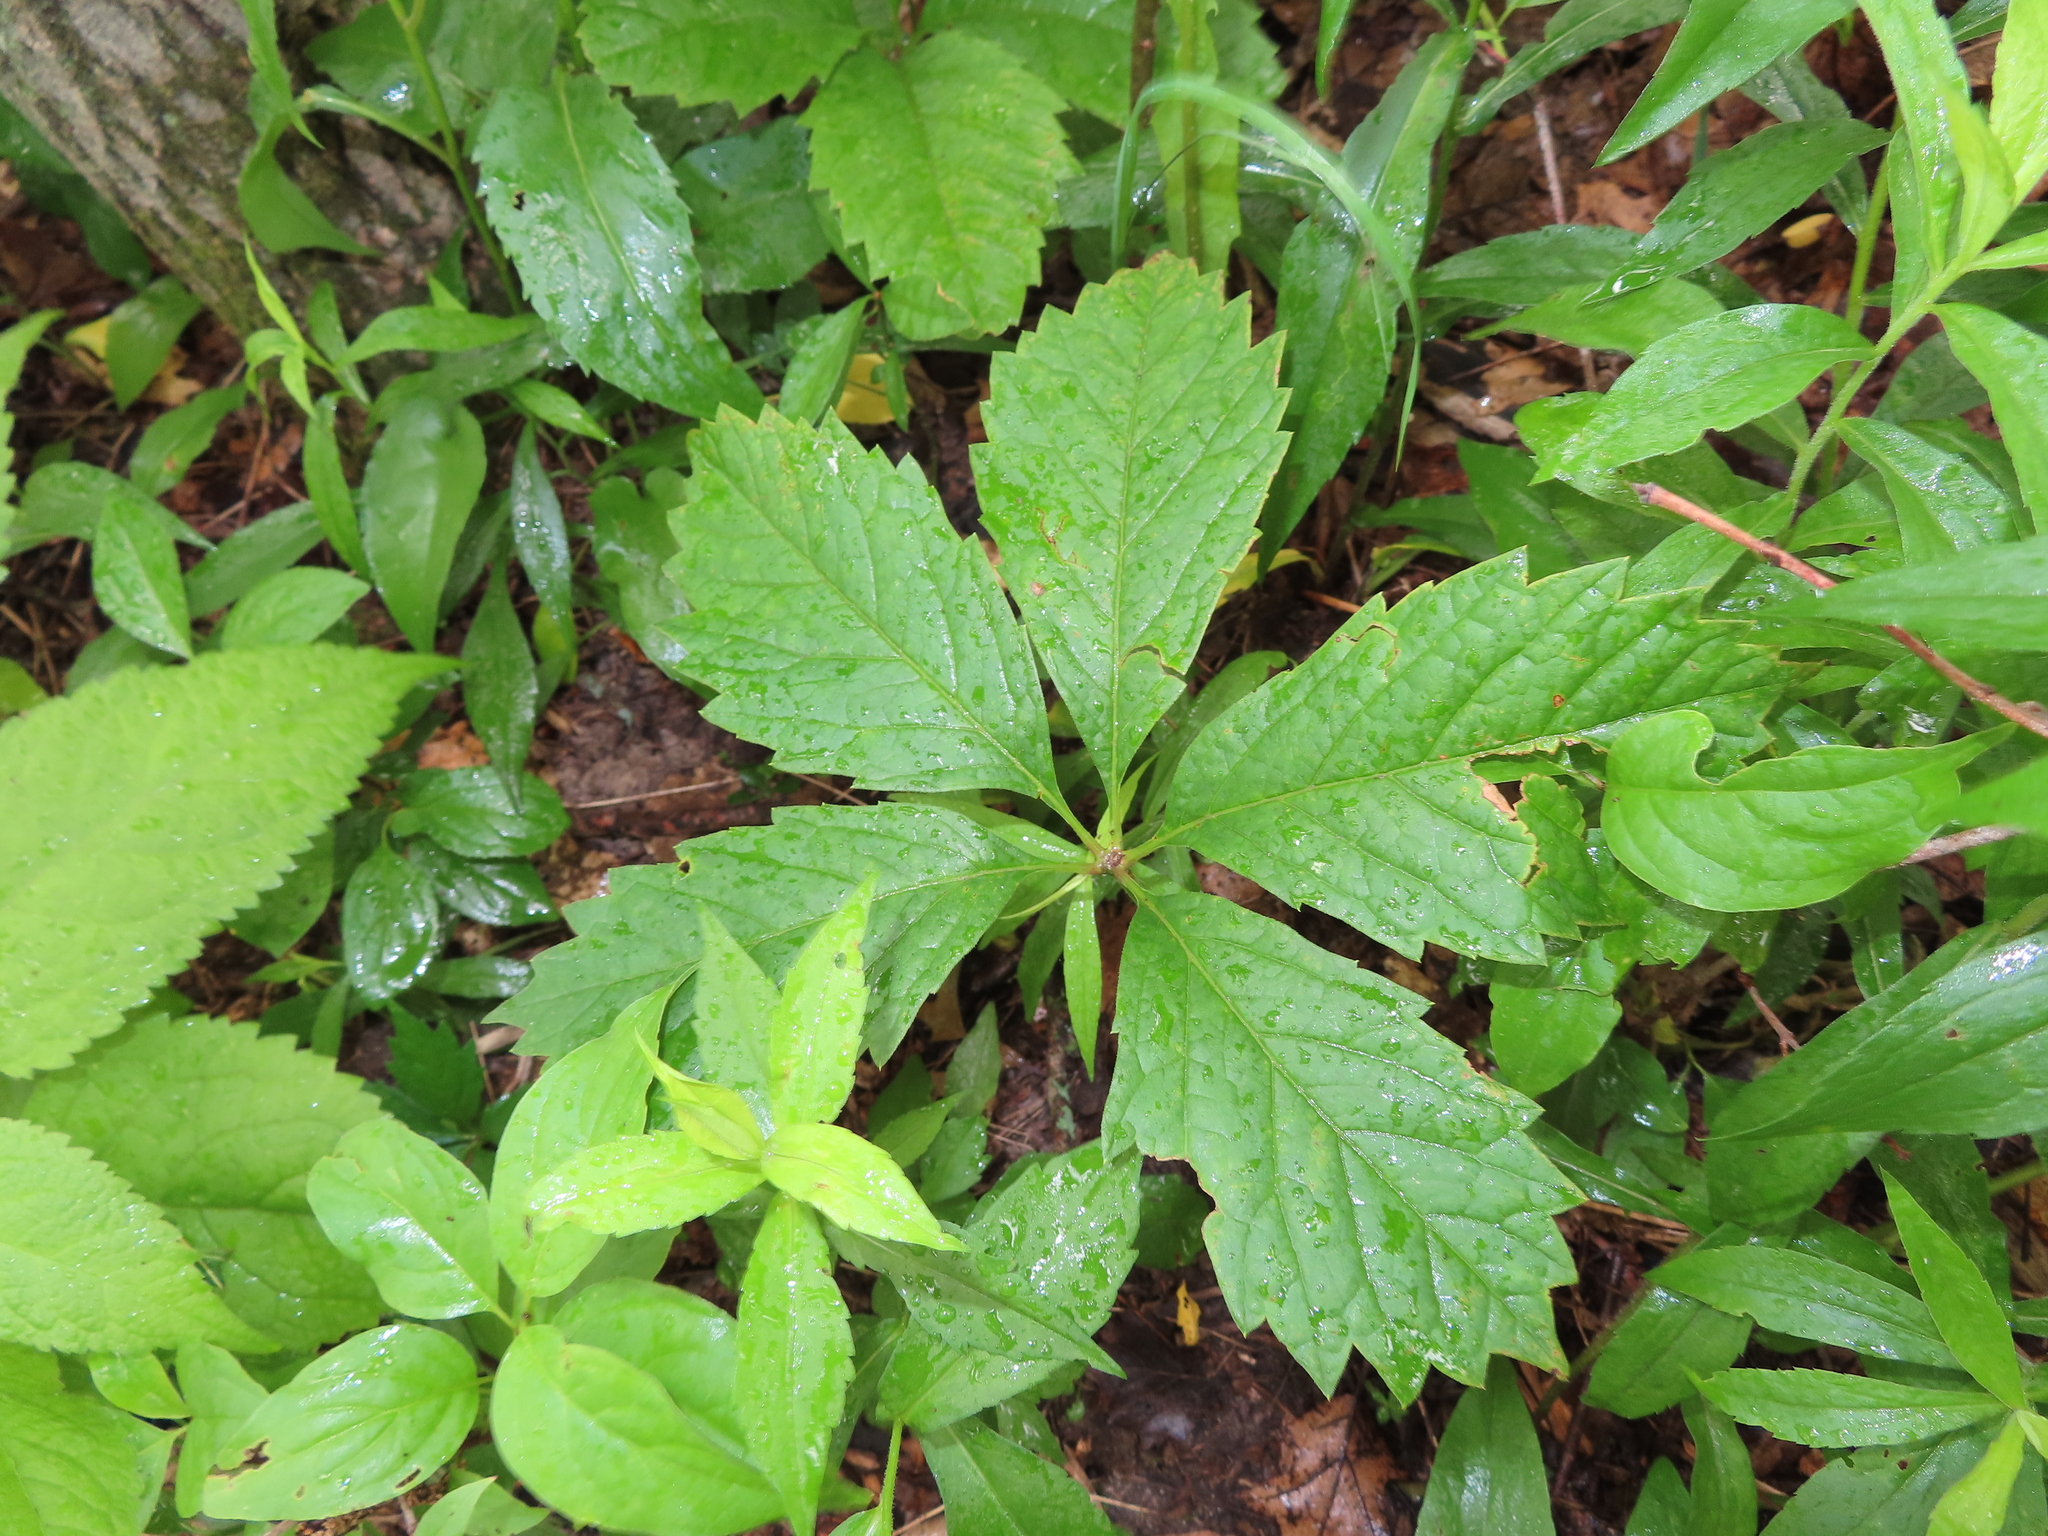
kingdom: Plantae
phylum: Tracheophyta
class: Magnoliopsida
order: Vitales
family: Vitaceae
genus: Parthenocissus
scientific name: Parthenocissus inserta
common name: False virginia-creeper
